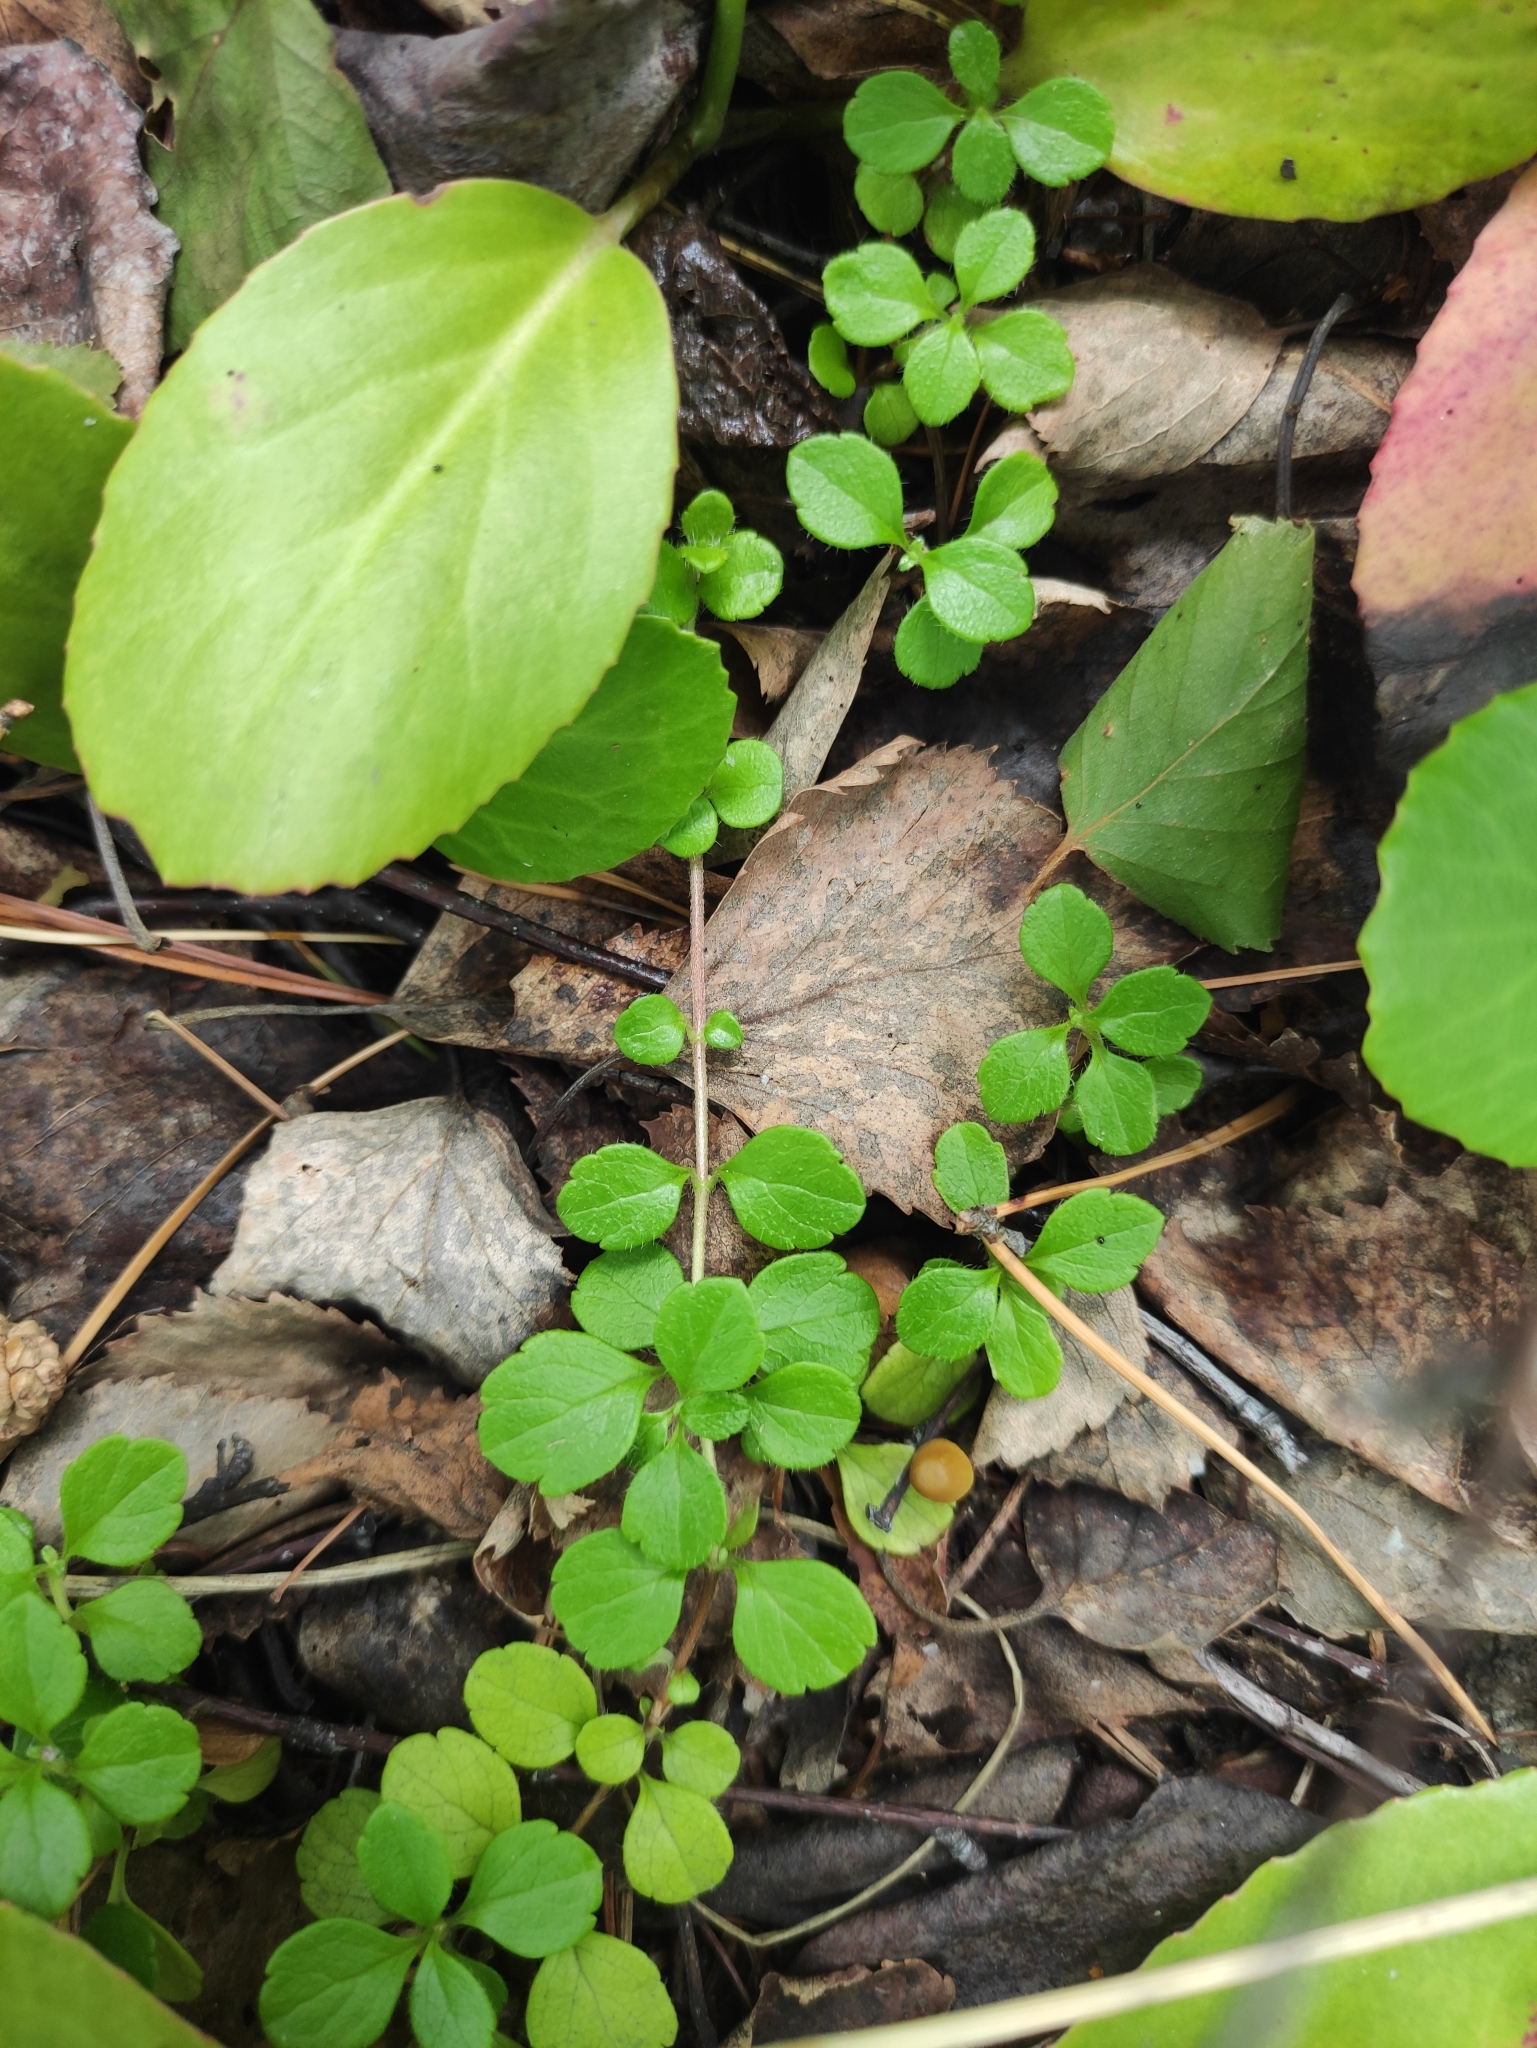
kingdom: Plantae
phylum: Tracheophyta
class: Magnoliopsida
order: Dipsacales
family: Caprifoliaceae
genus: Linnaea
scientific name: Linnaea borealis
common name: Twinflower
